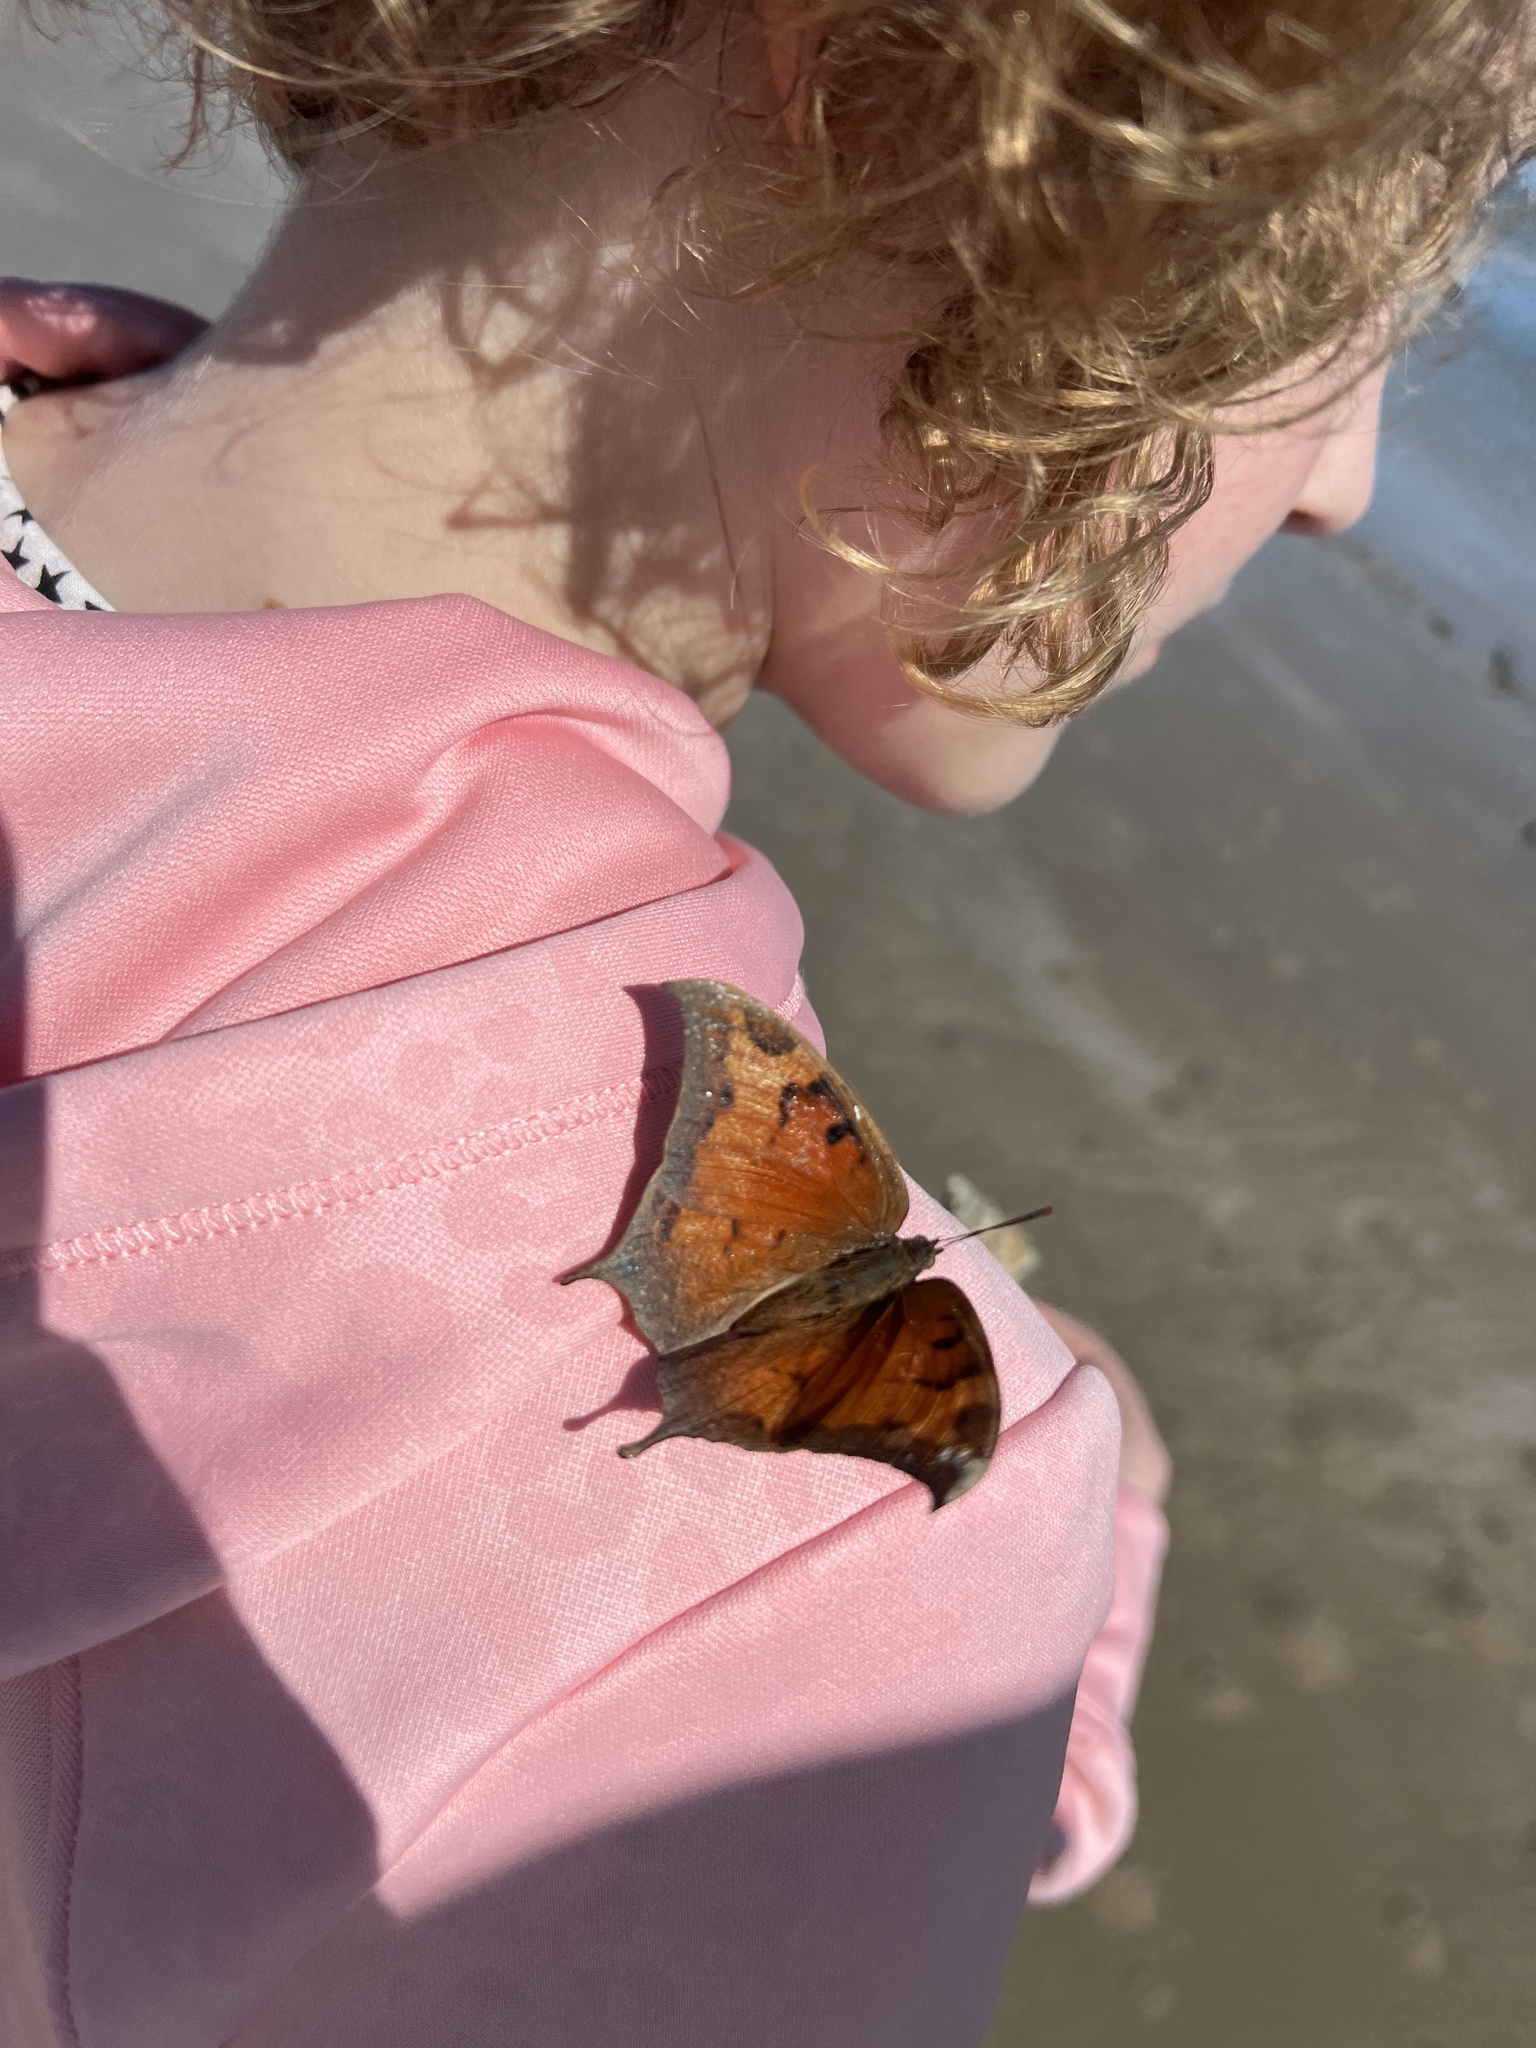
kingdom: Animalia
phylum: Arthropoda
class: Insecta
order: Lepidoptera
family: Nymphalidae
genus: Anaea
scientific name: Anaea andria
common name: Goatweed leafwing
